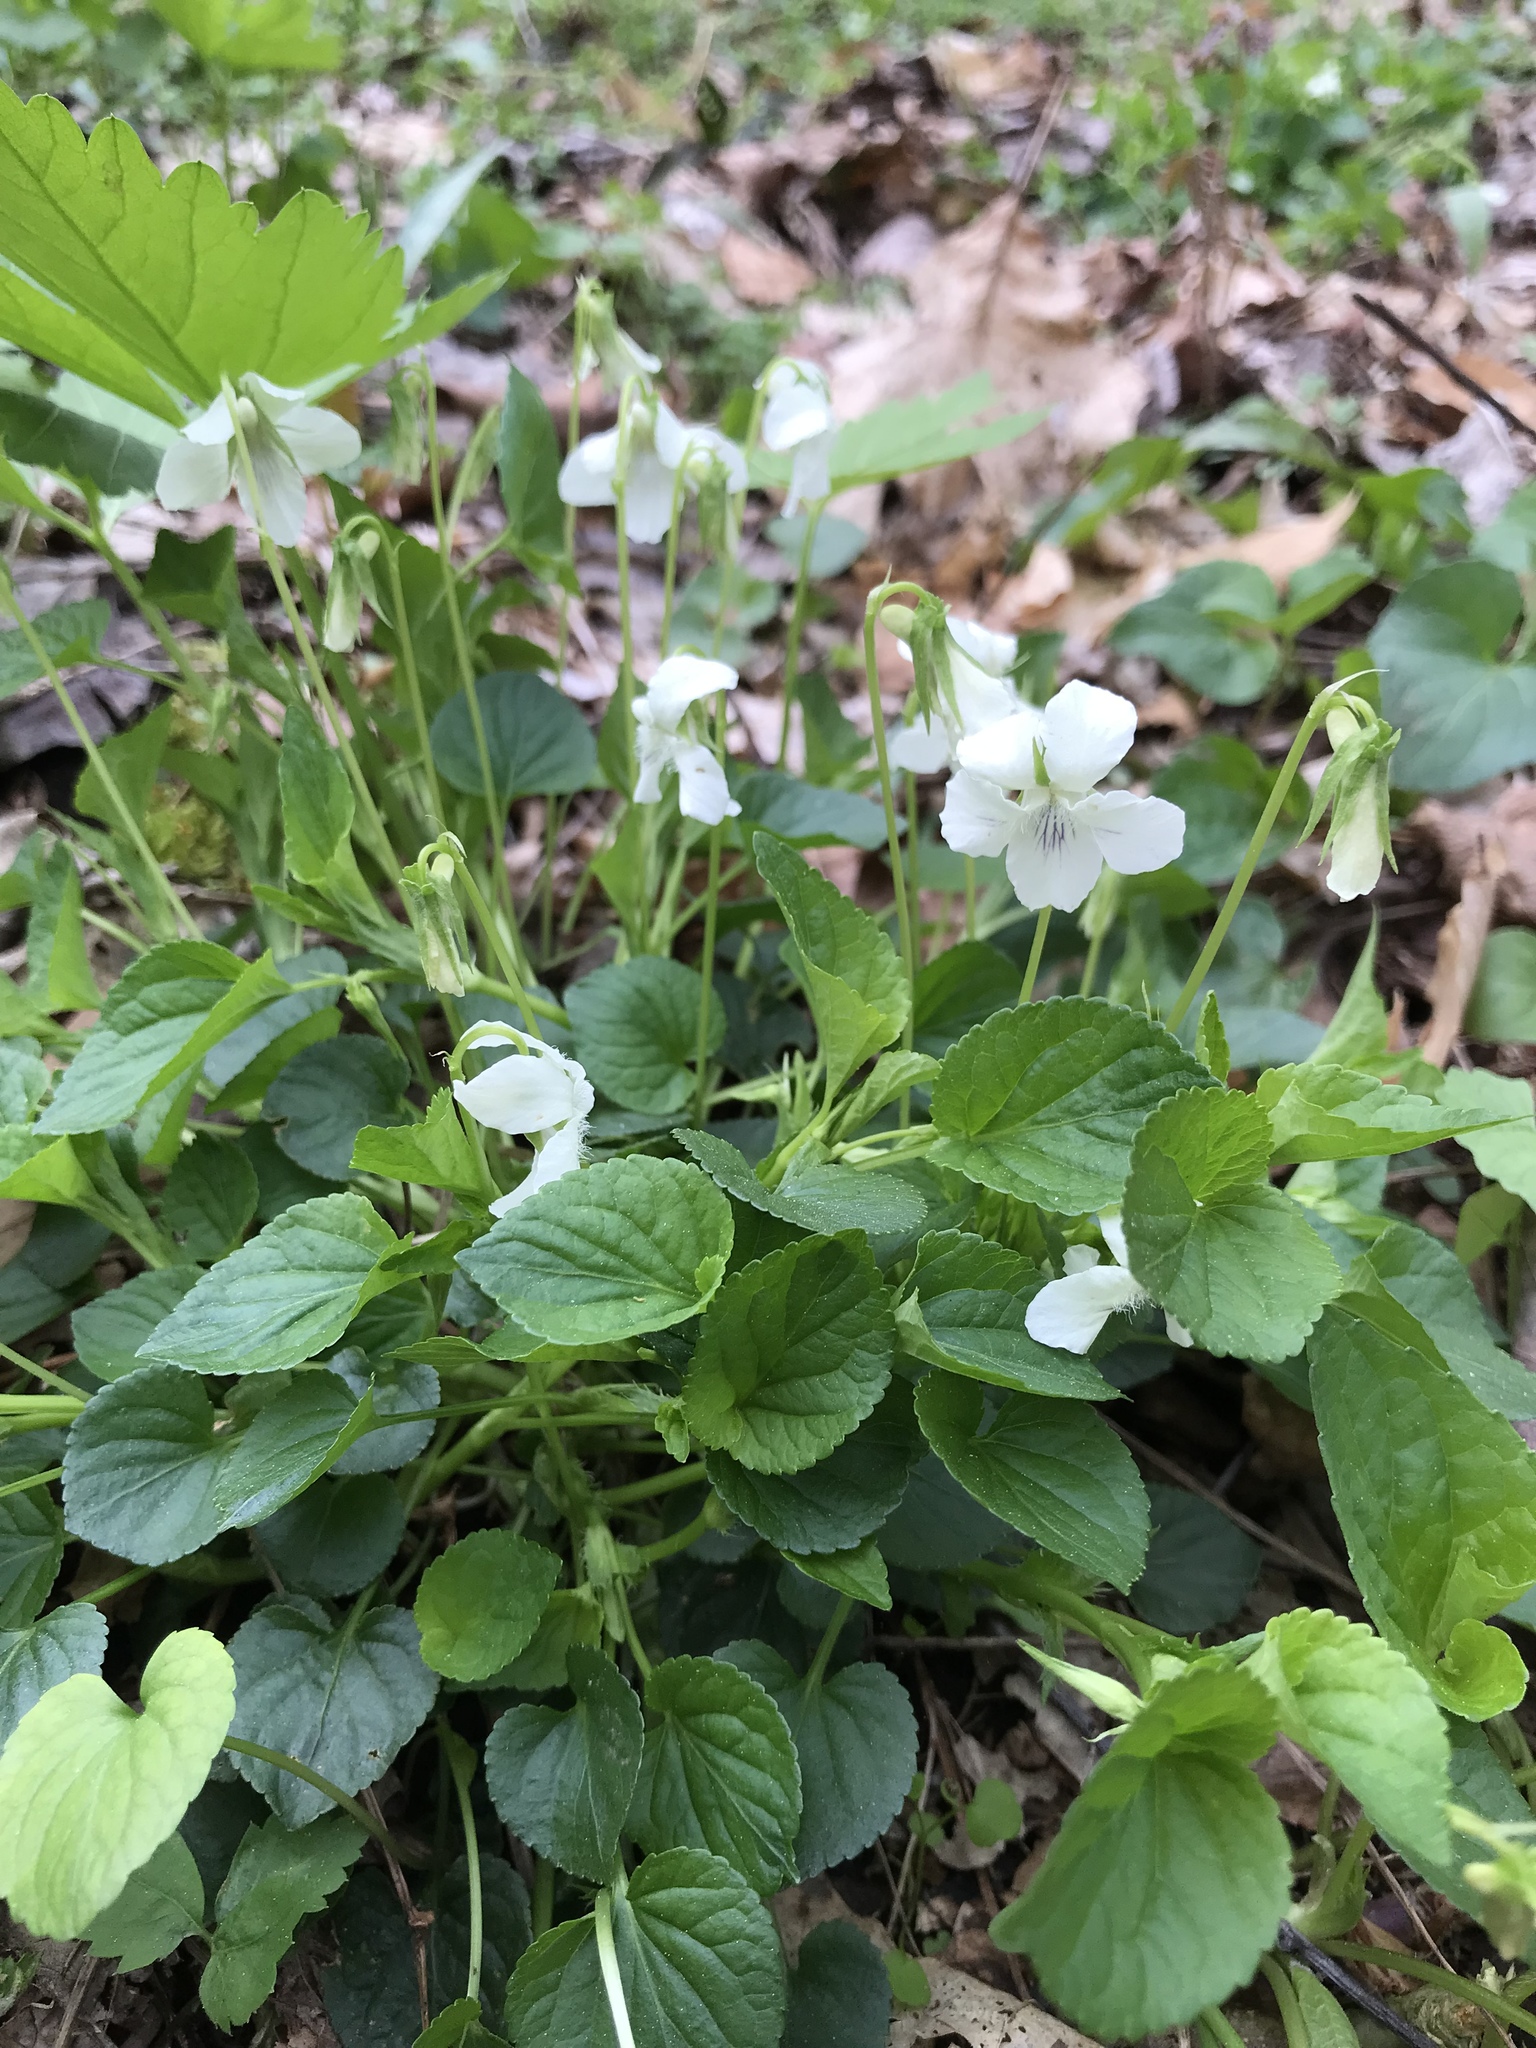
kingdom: Plantae
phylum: Tracheophyta
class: Magnoliopsida
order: Malpighiales
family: Violaceae
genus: Viola
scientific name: Viola striata
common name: Cream violet
